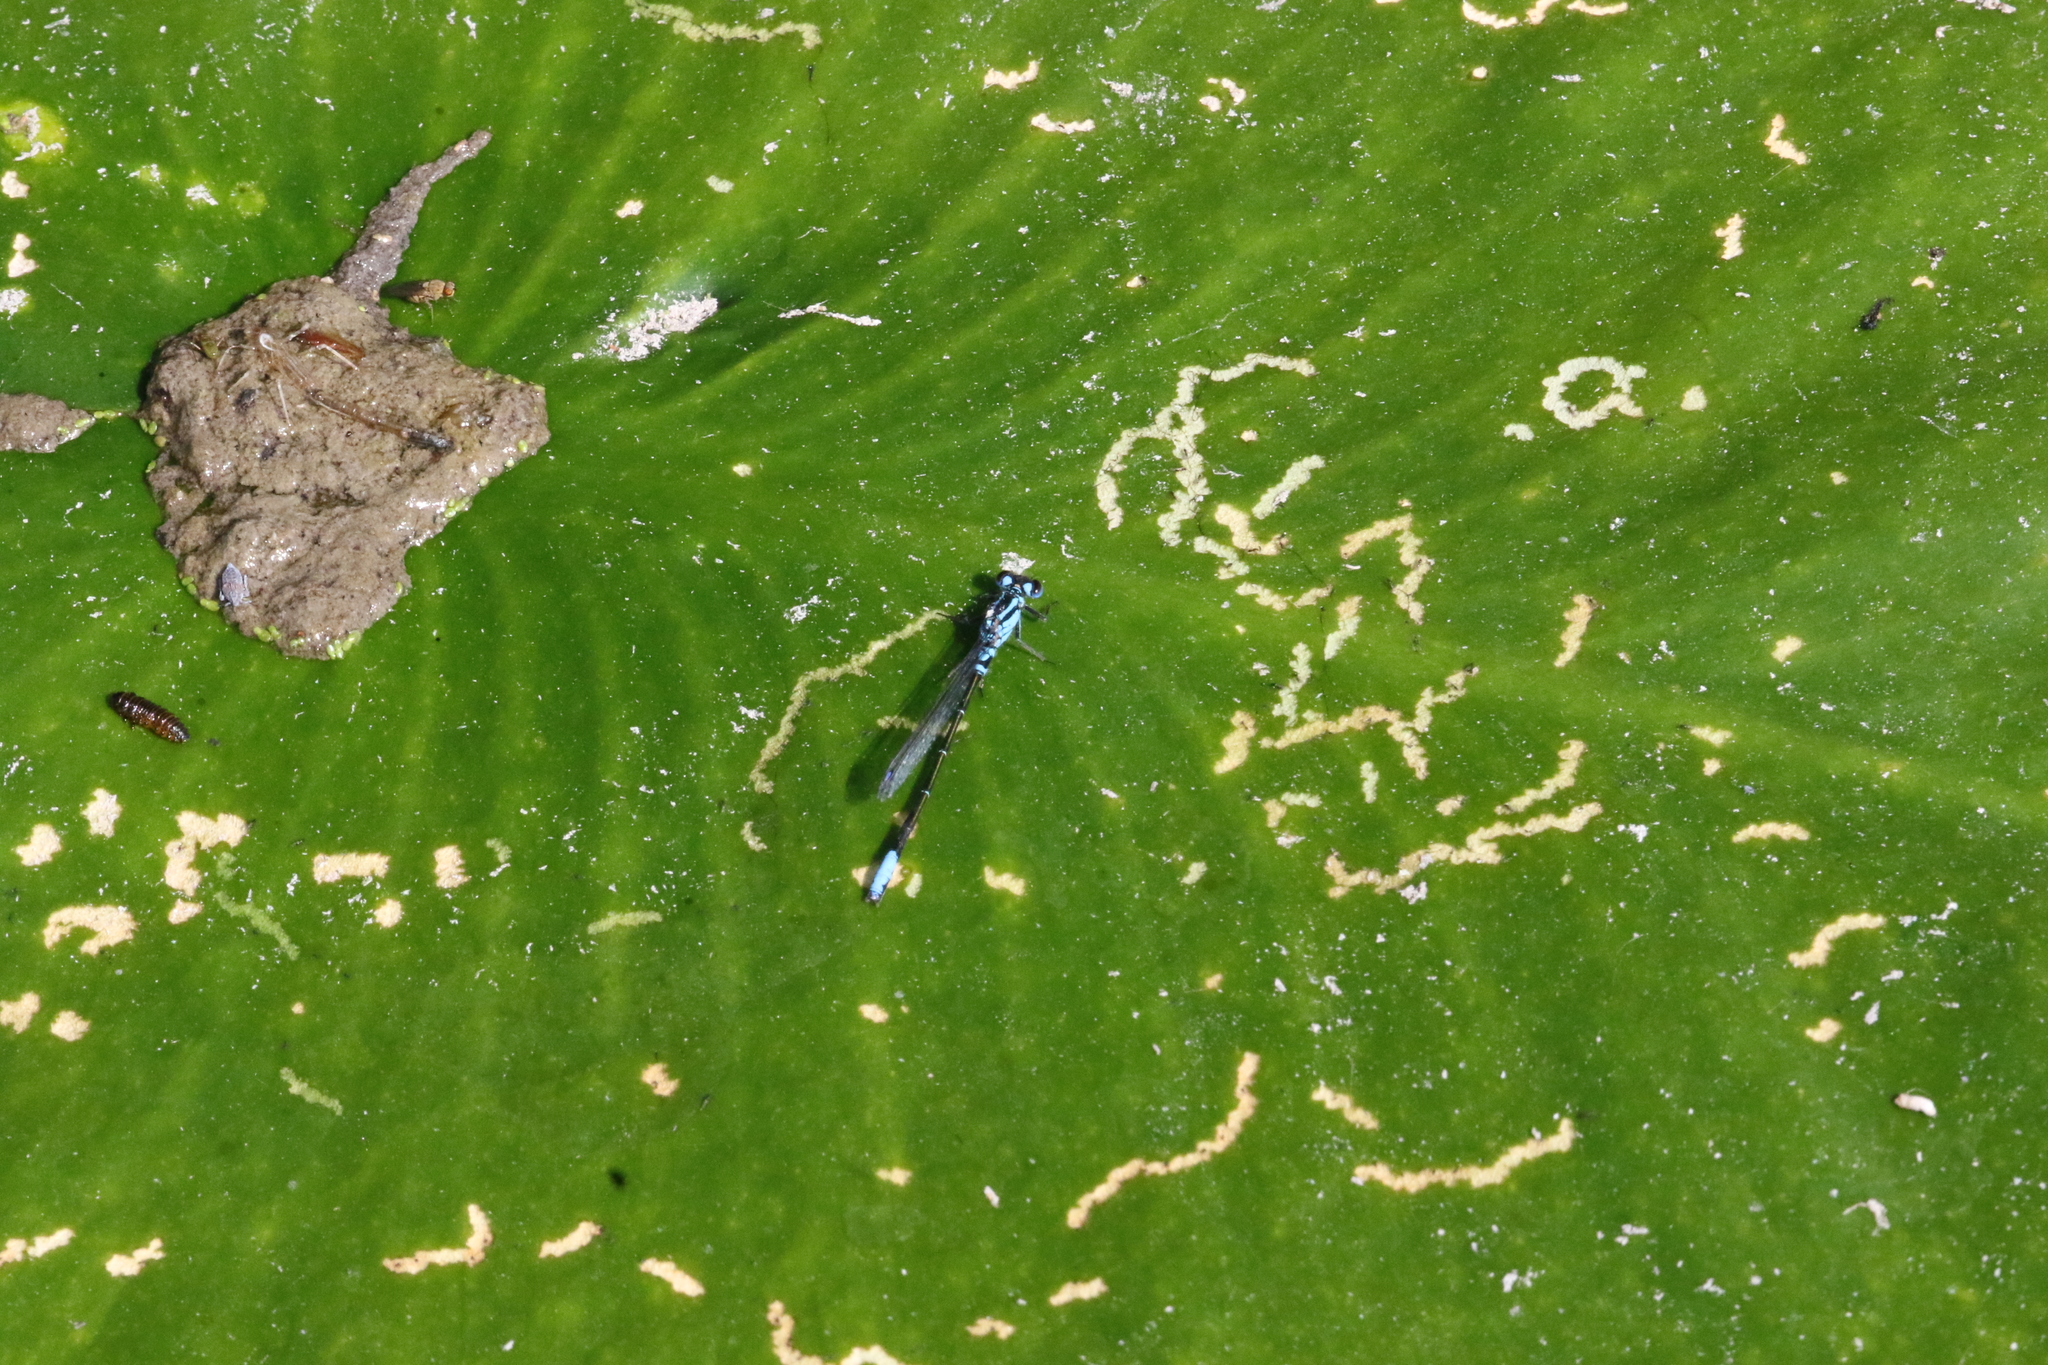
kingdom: Animalia
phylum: Arthropoda
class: Insecta
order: Odonata
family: Coenagrionidae
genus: Ischnura
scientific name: Ischnura kellicotti
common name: Lilypad forktail
